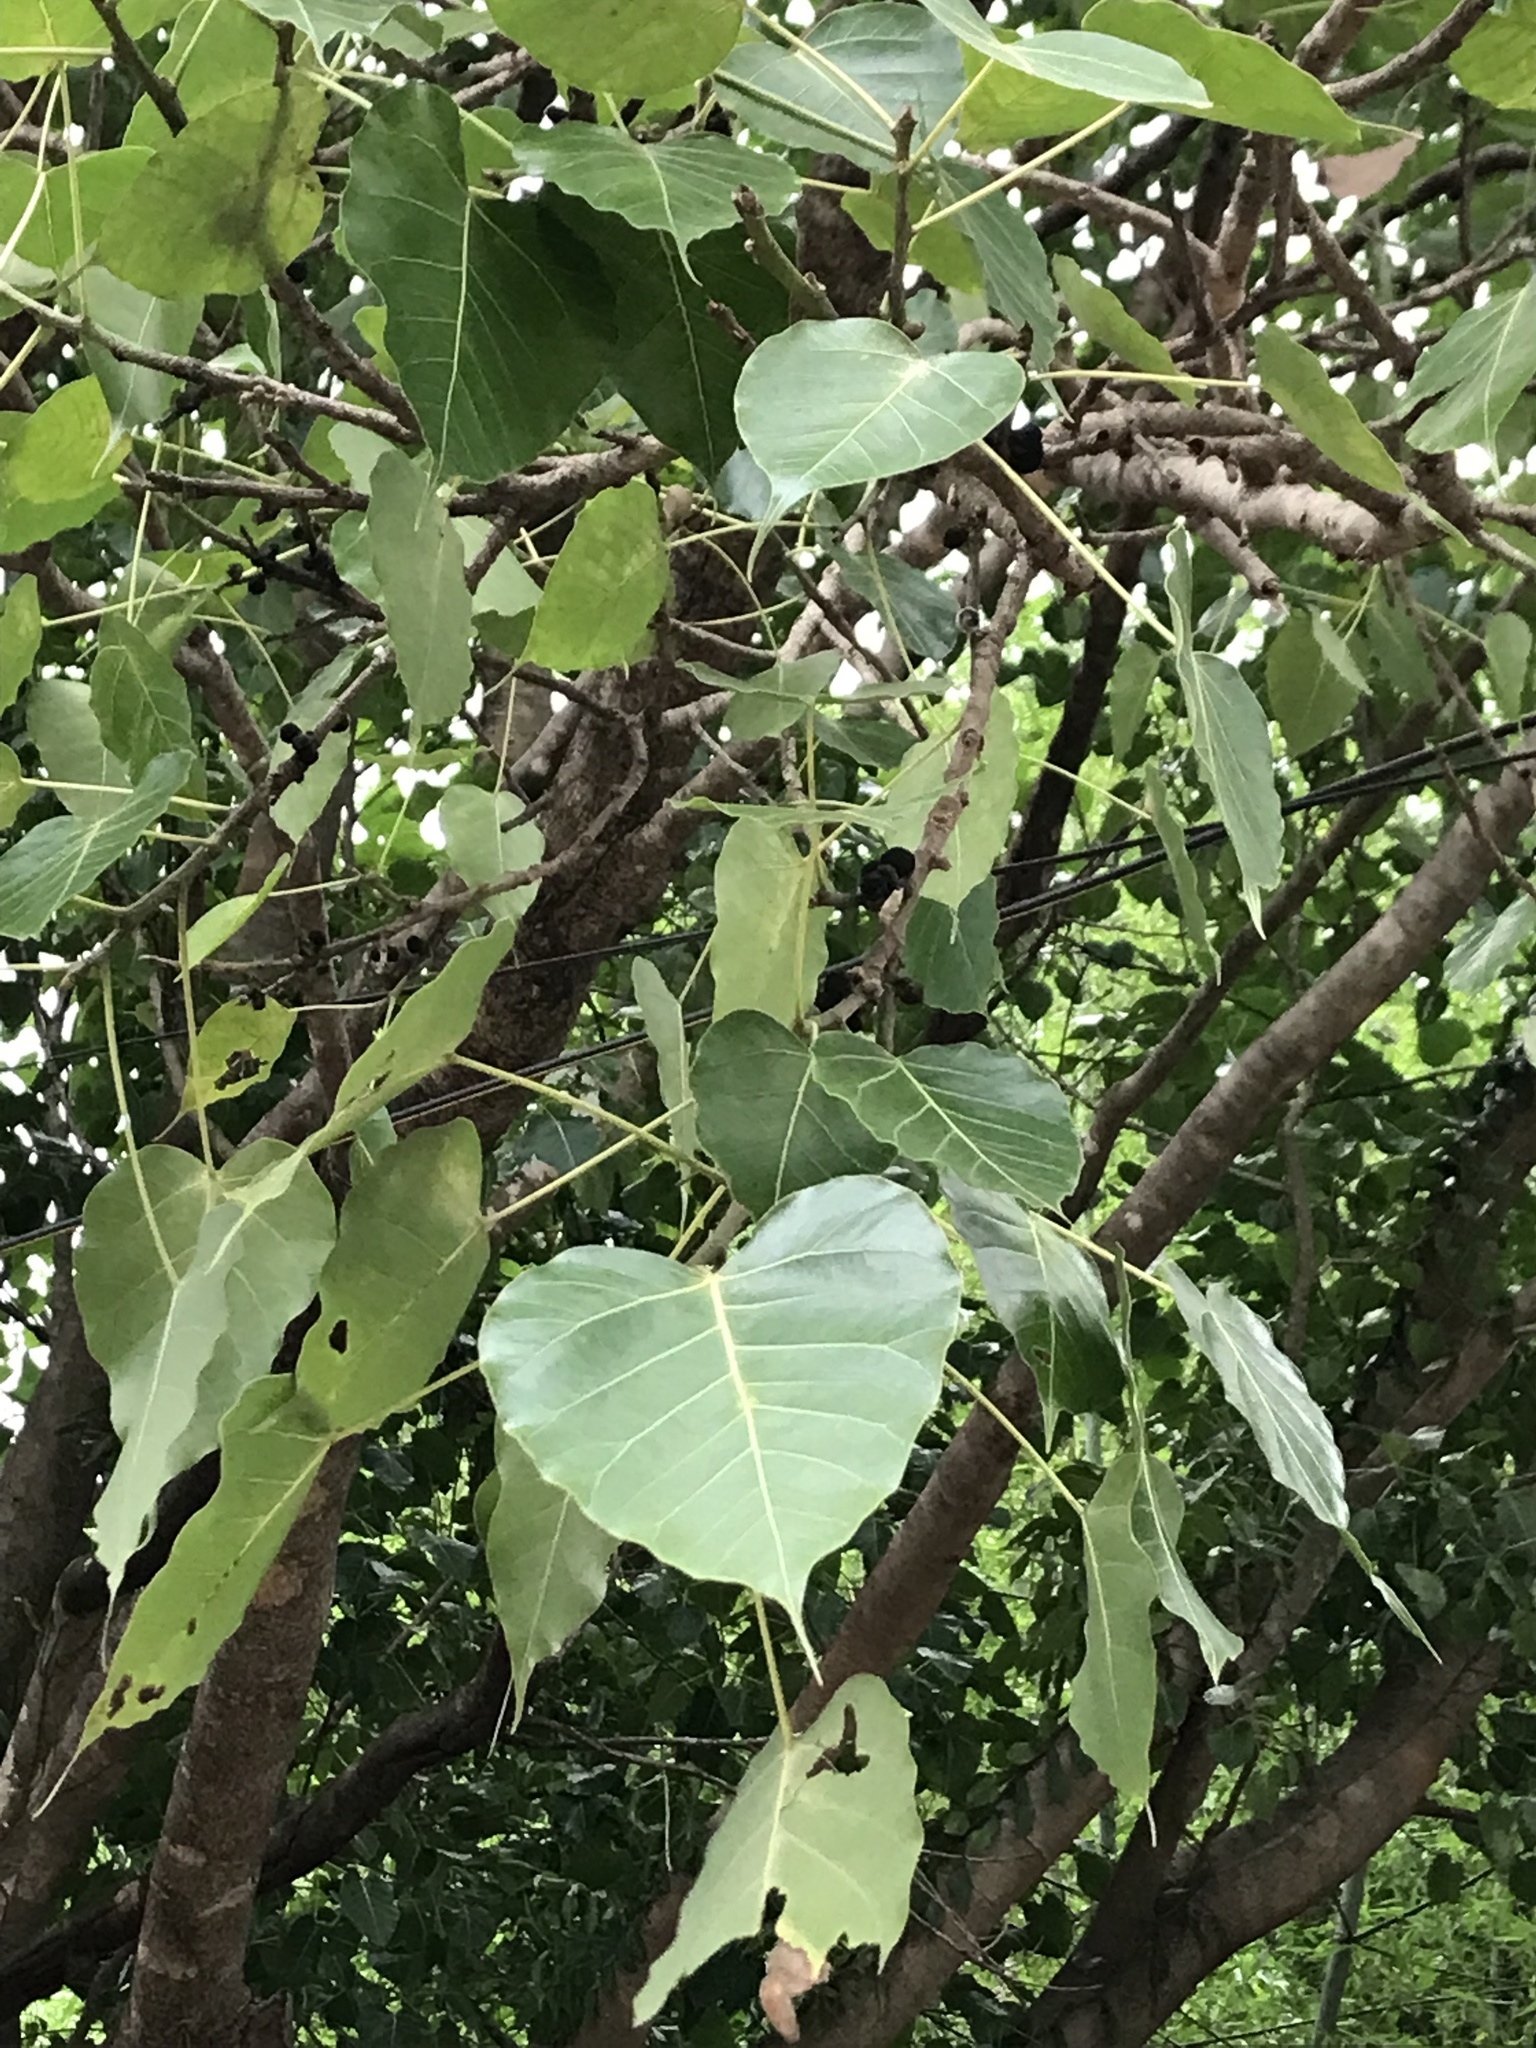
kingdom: Plantae
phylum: Tracheophyta
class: Magnoliopsida
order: Rosales
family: Moraceae
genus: Ficus
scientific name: Ficus religiosa
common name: Bodhi tree
